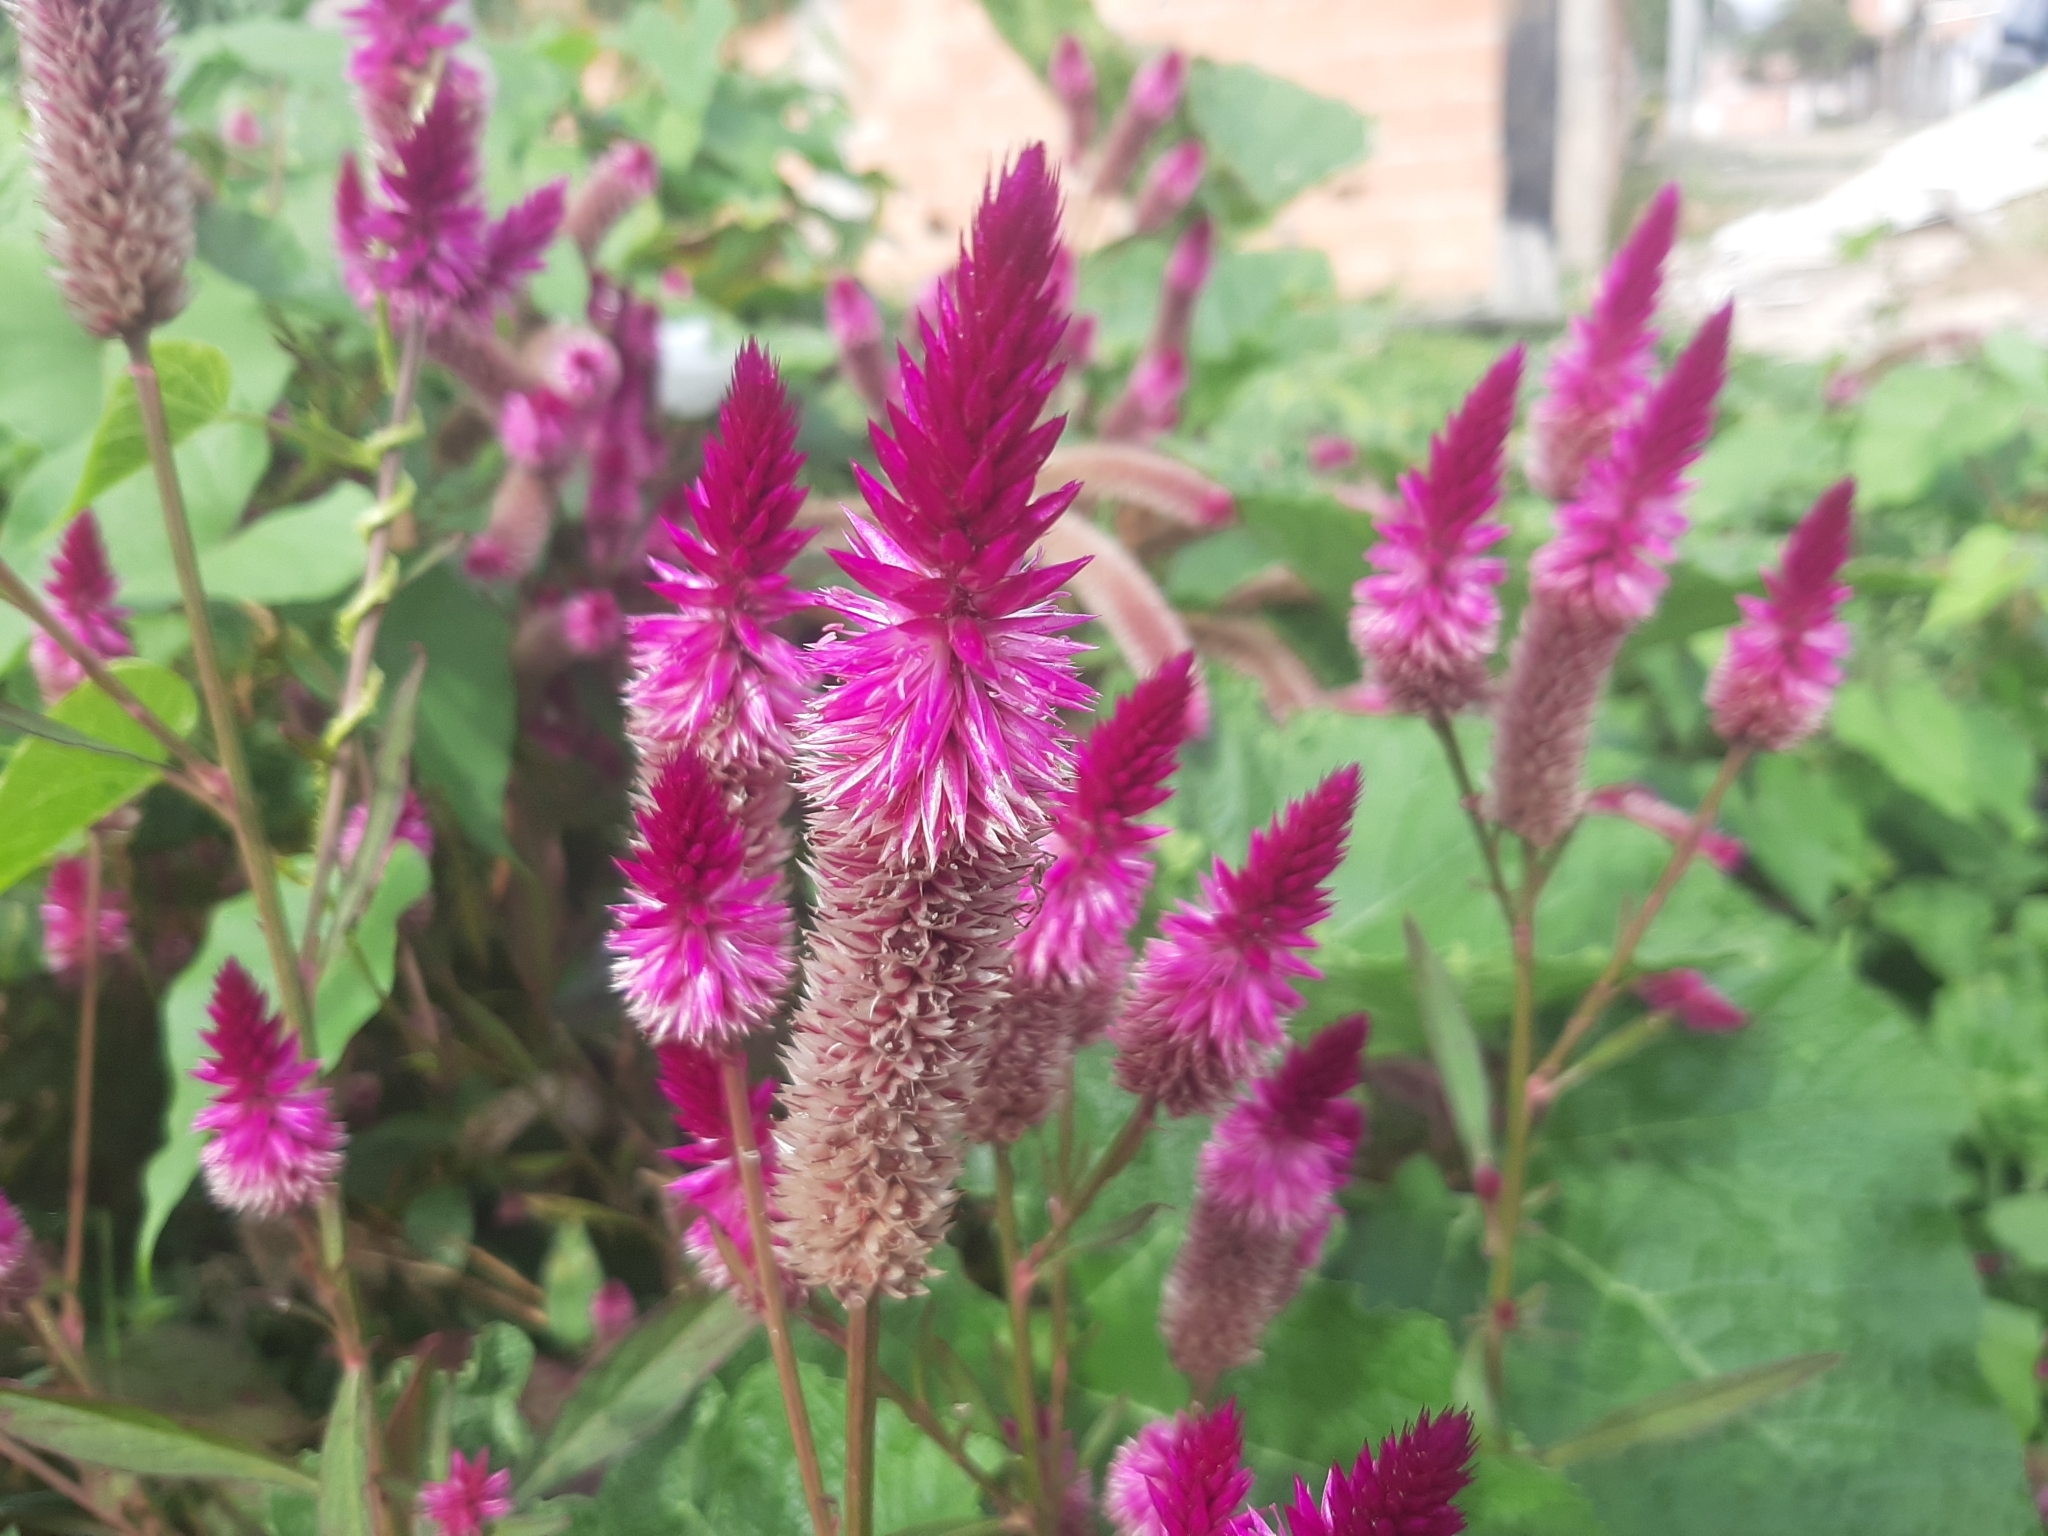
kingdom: Plantae
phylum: Tracheophyta
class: Magnoliopsida
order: Caryophyllales
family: Amaranthaceae
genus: Celosia
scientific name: Celosia argentea
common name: Feather cockscomb
